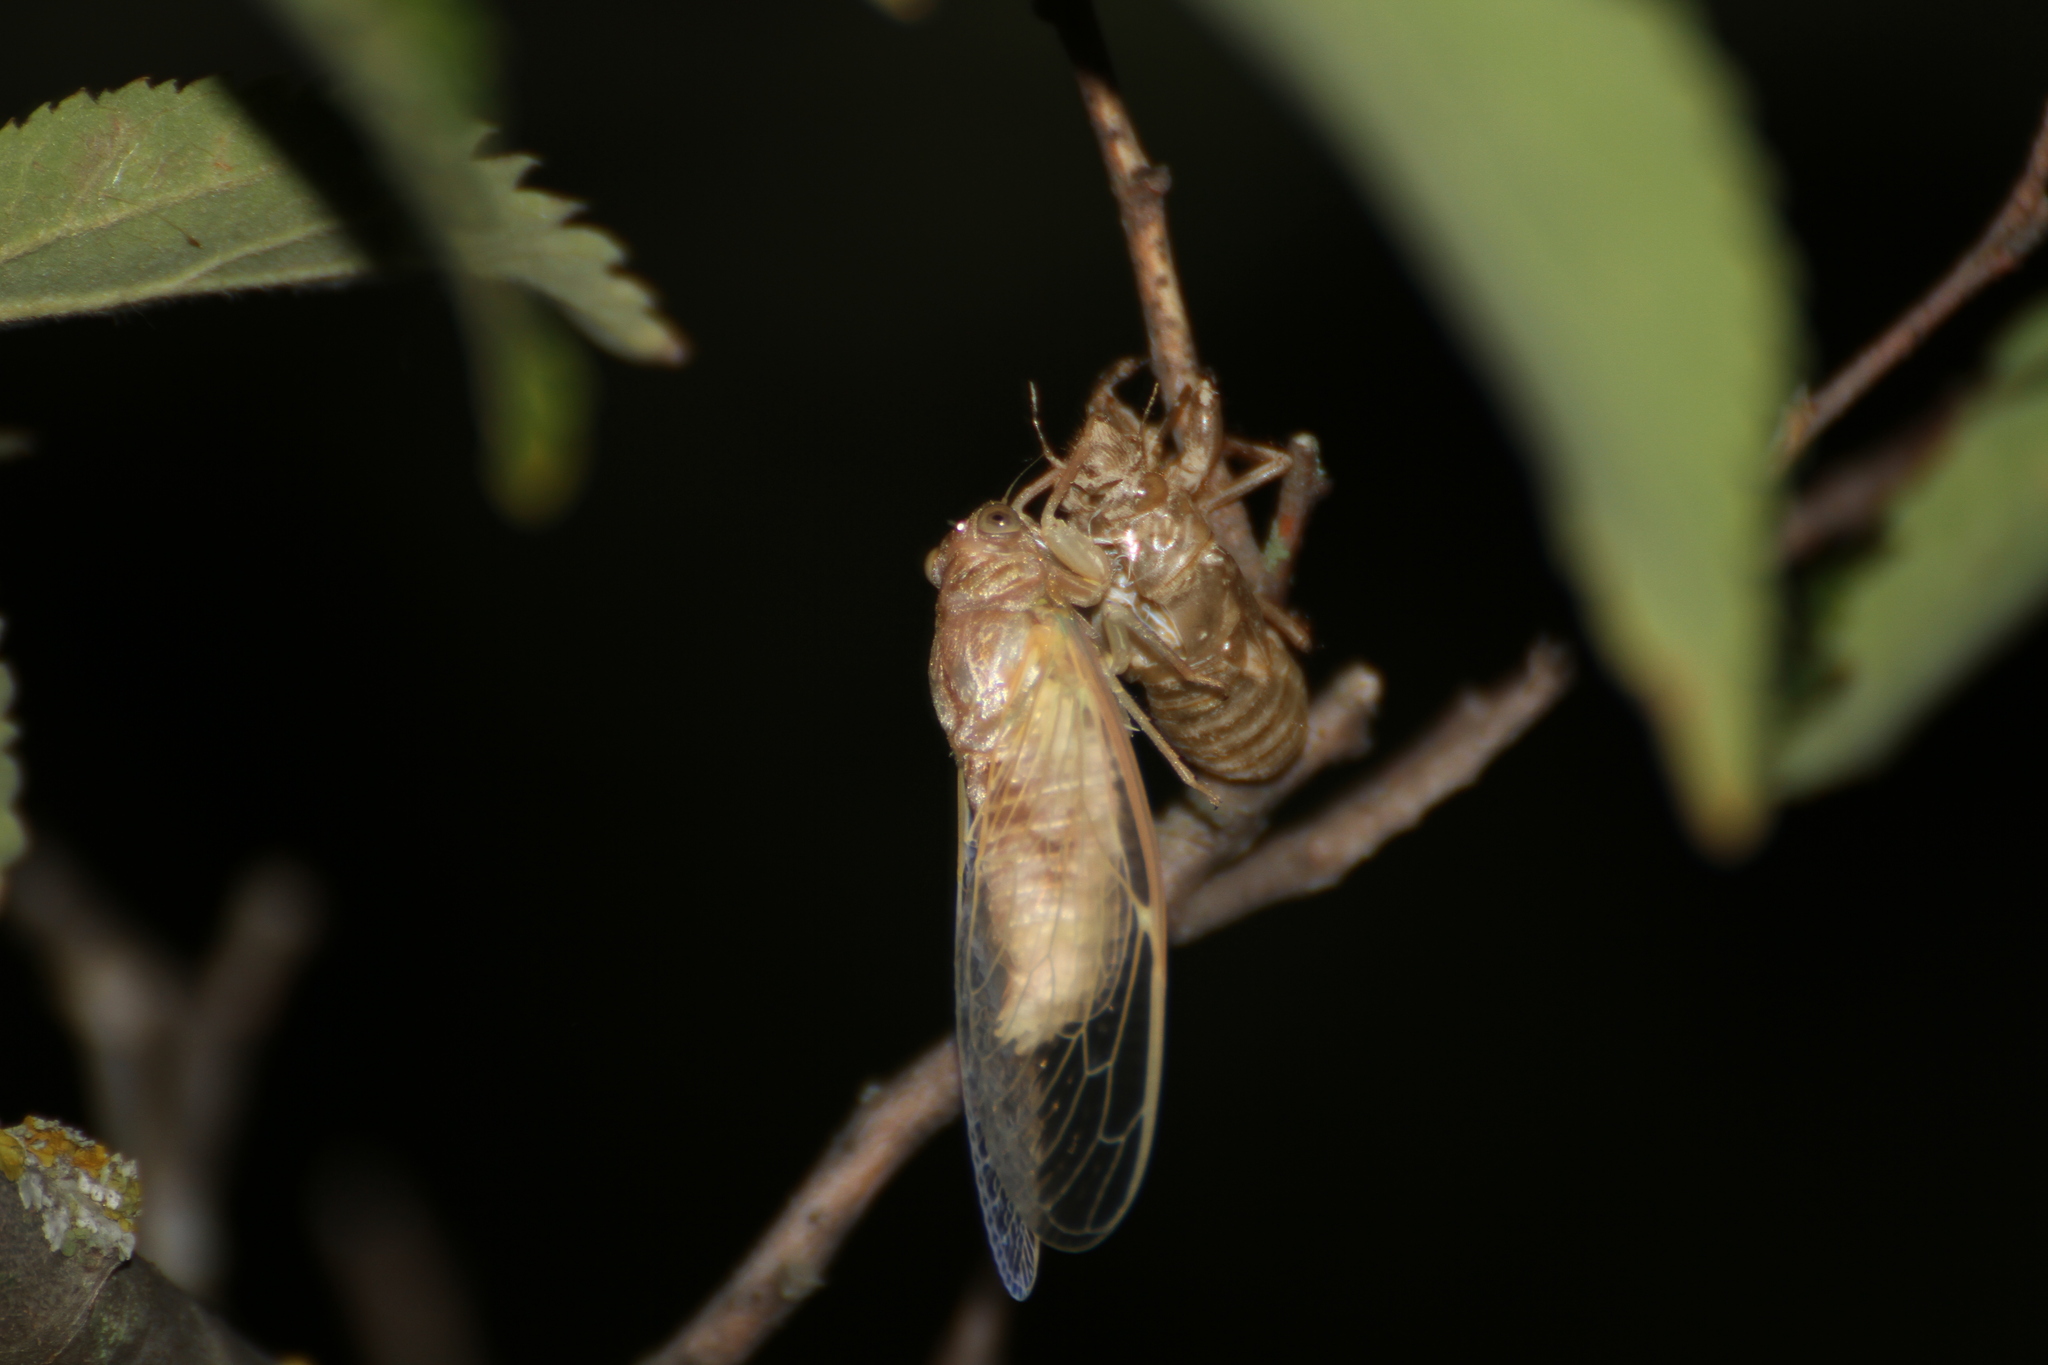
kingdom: Animalia
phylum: Arthropoda
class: Insecta
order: Hemiptera
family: Cicadidae
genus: Cicada
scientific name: Cicada orni
